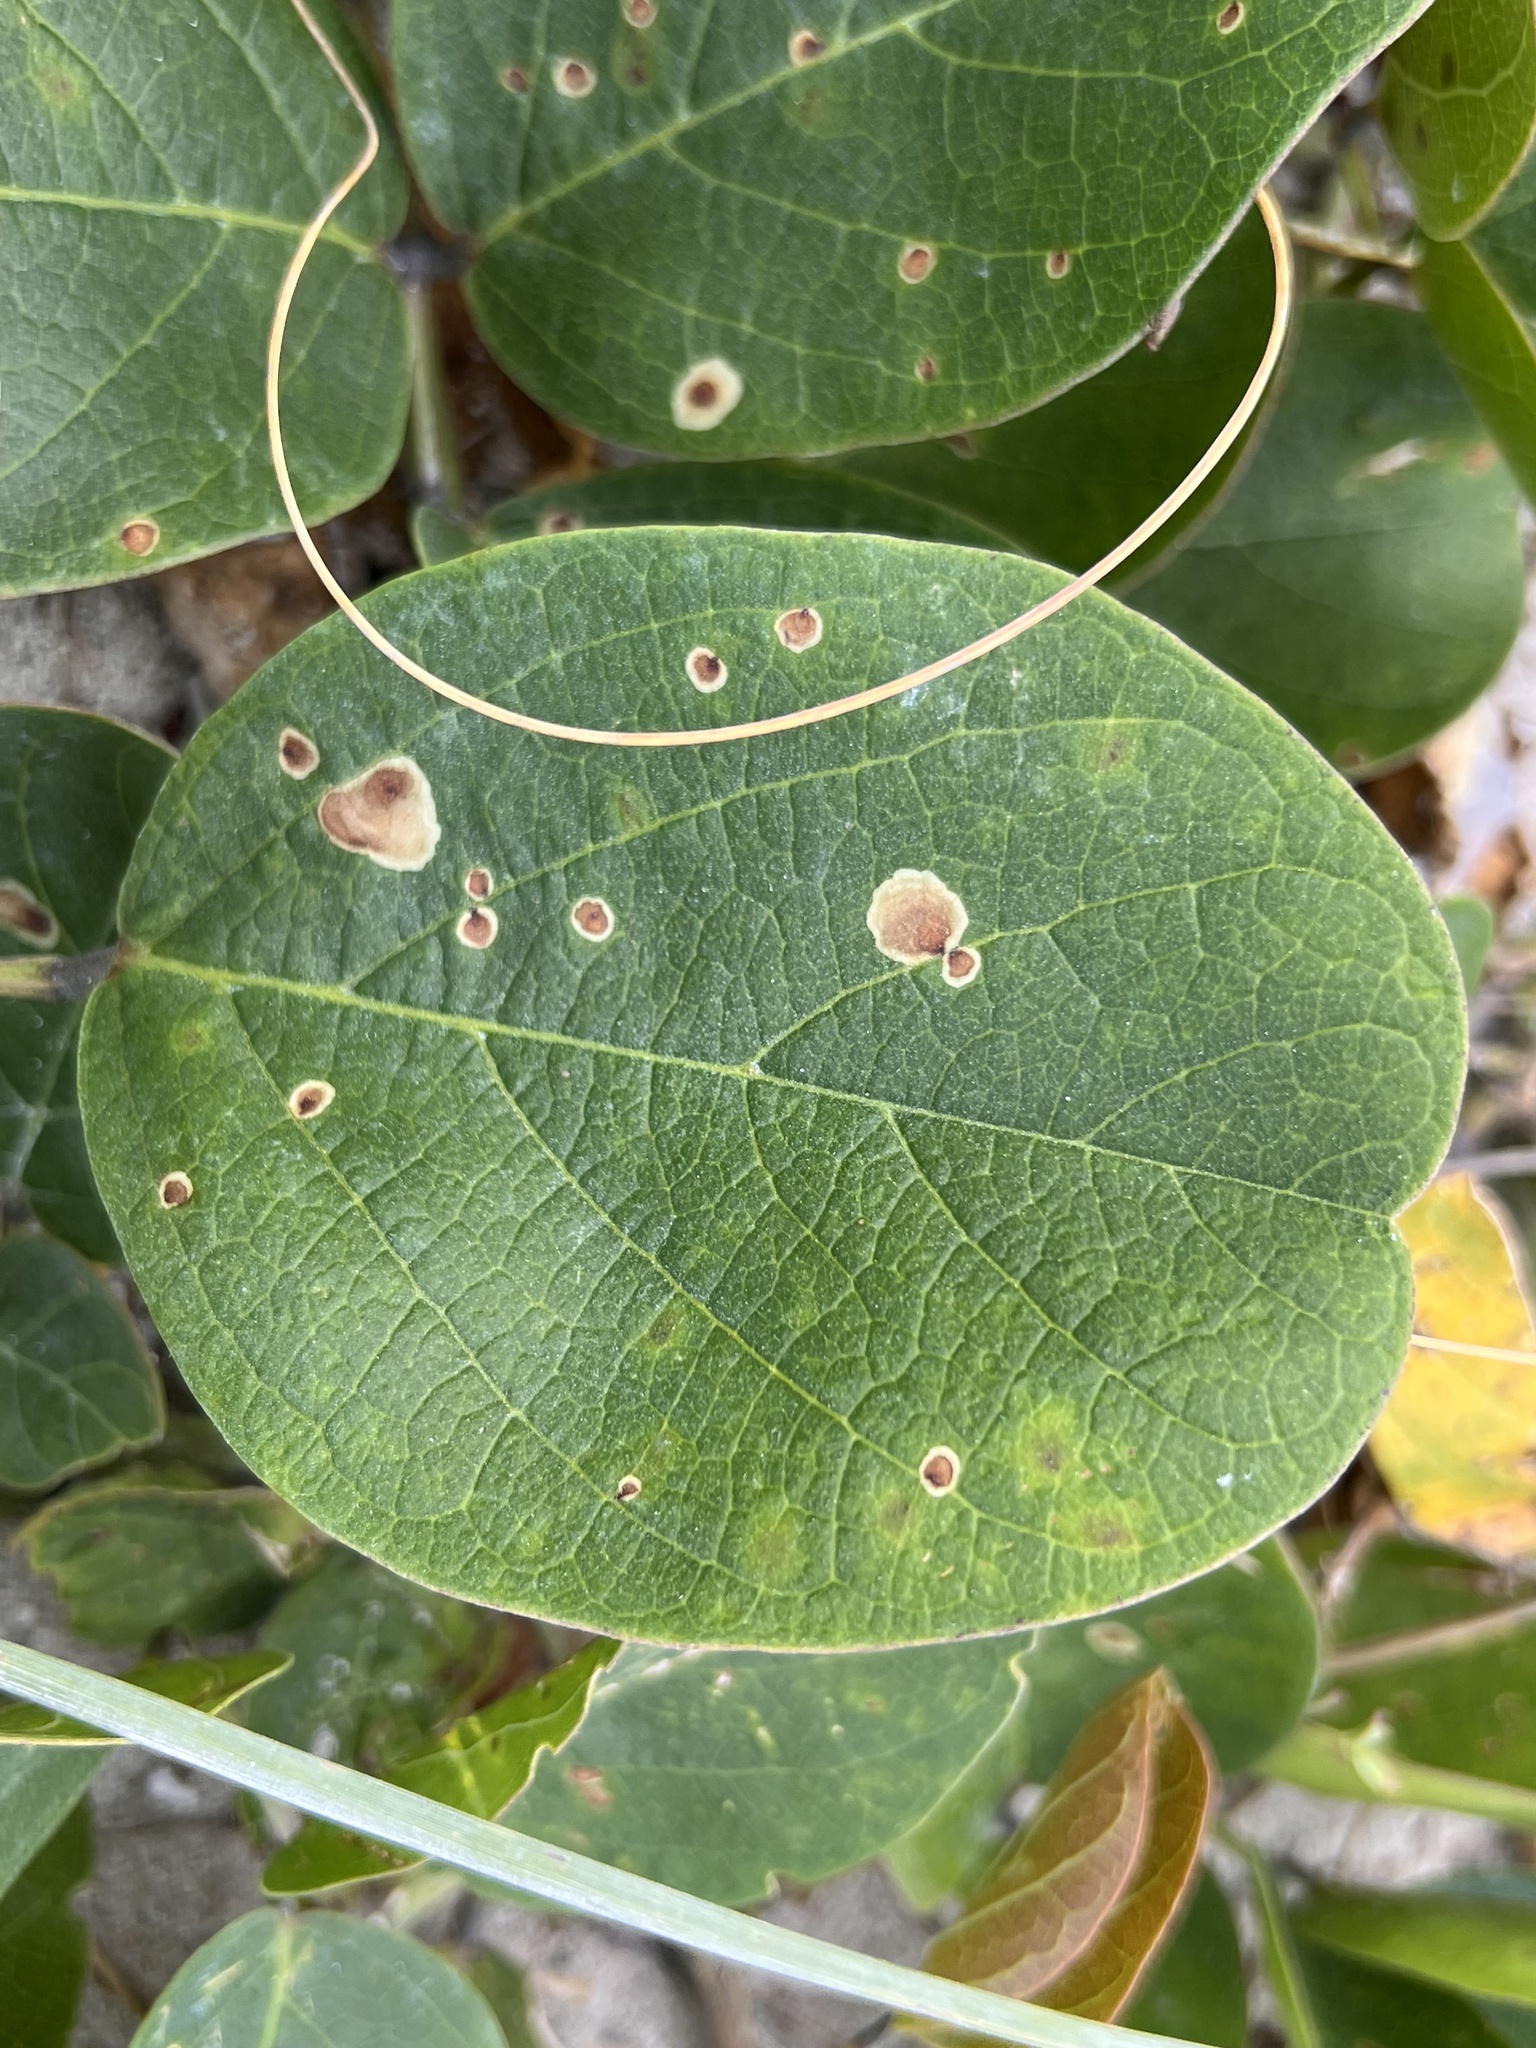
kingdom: Plantae
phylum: Tracheophyta
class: Magnoliopsida
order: Fabales
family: Fabaceae
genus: Canavalia
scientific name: Canavalia rosea
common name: Beach-bean
